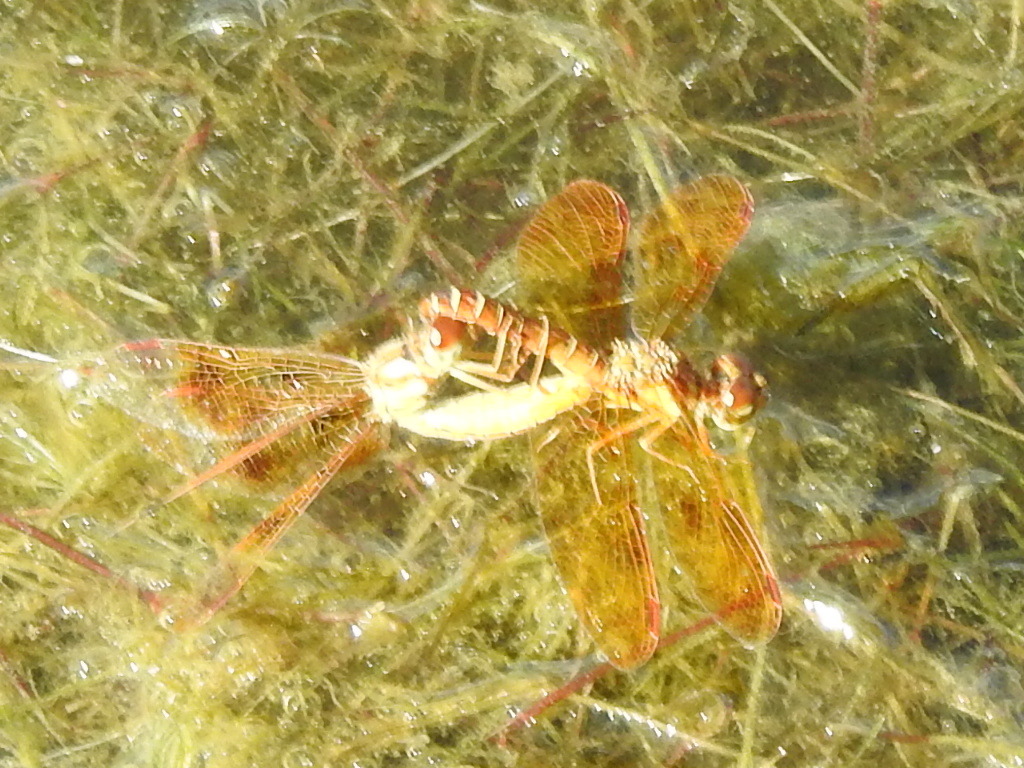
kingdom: Animalia
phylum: Arthropoda
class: Insecta
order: Odonata
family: Libellulidae
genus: Perithemis
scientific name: Perithemis tenera
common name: Eastern amberwing
